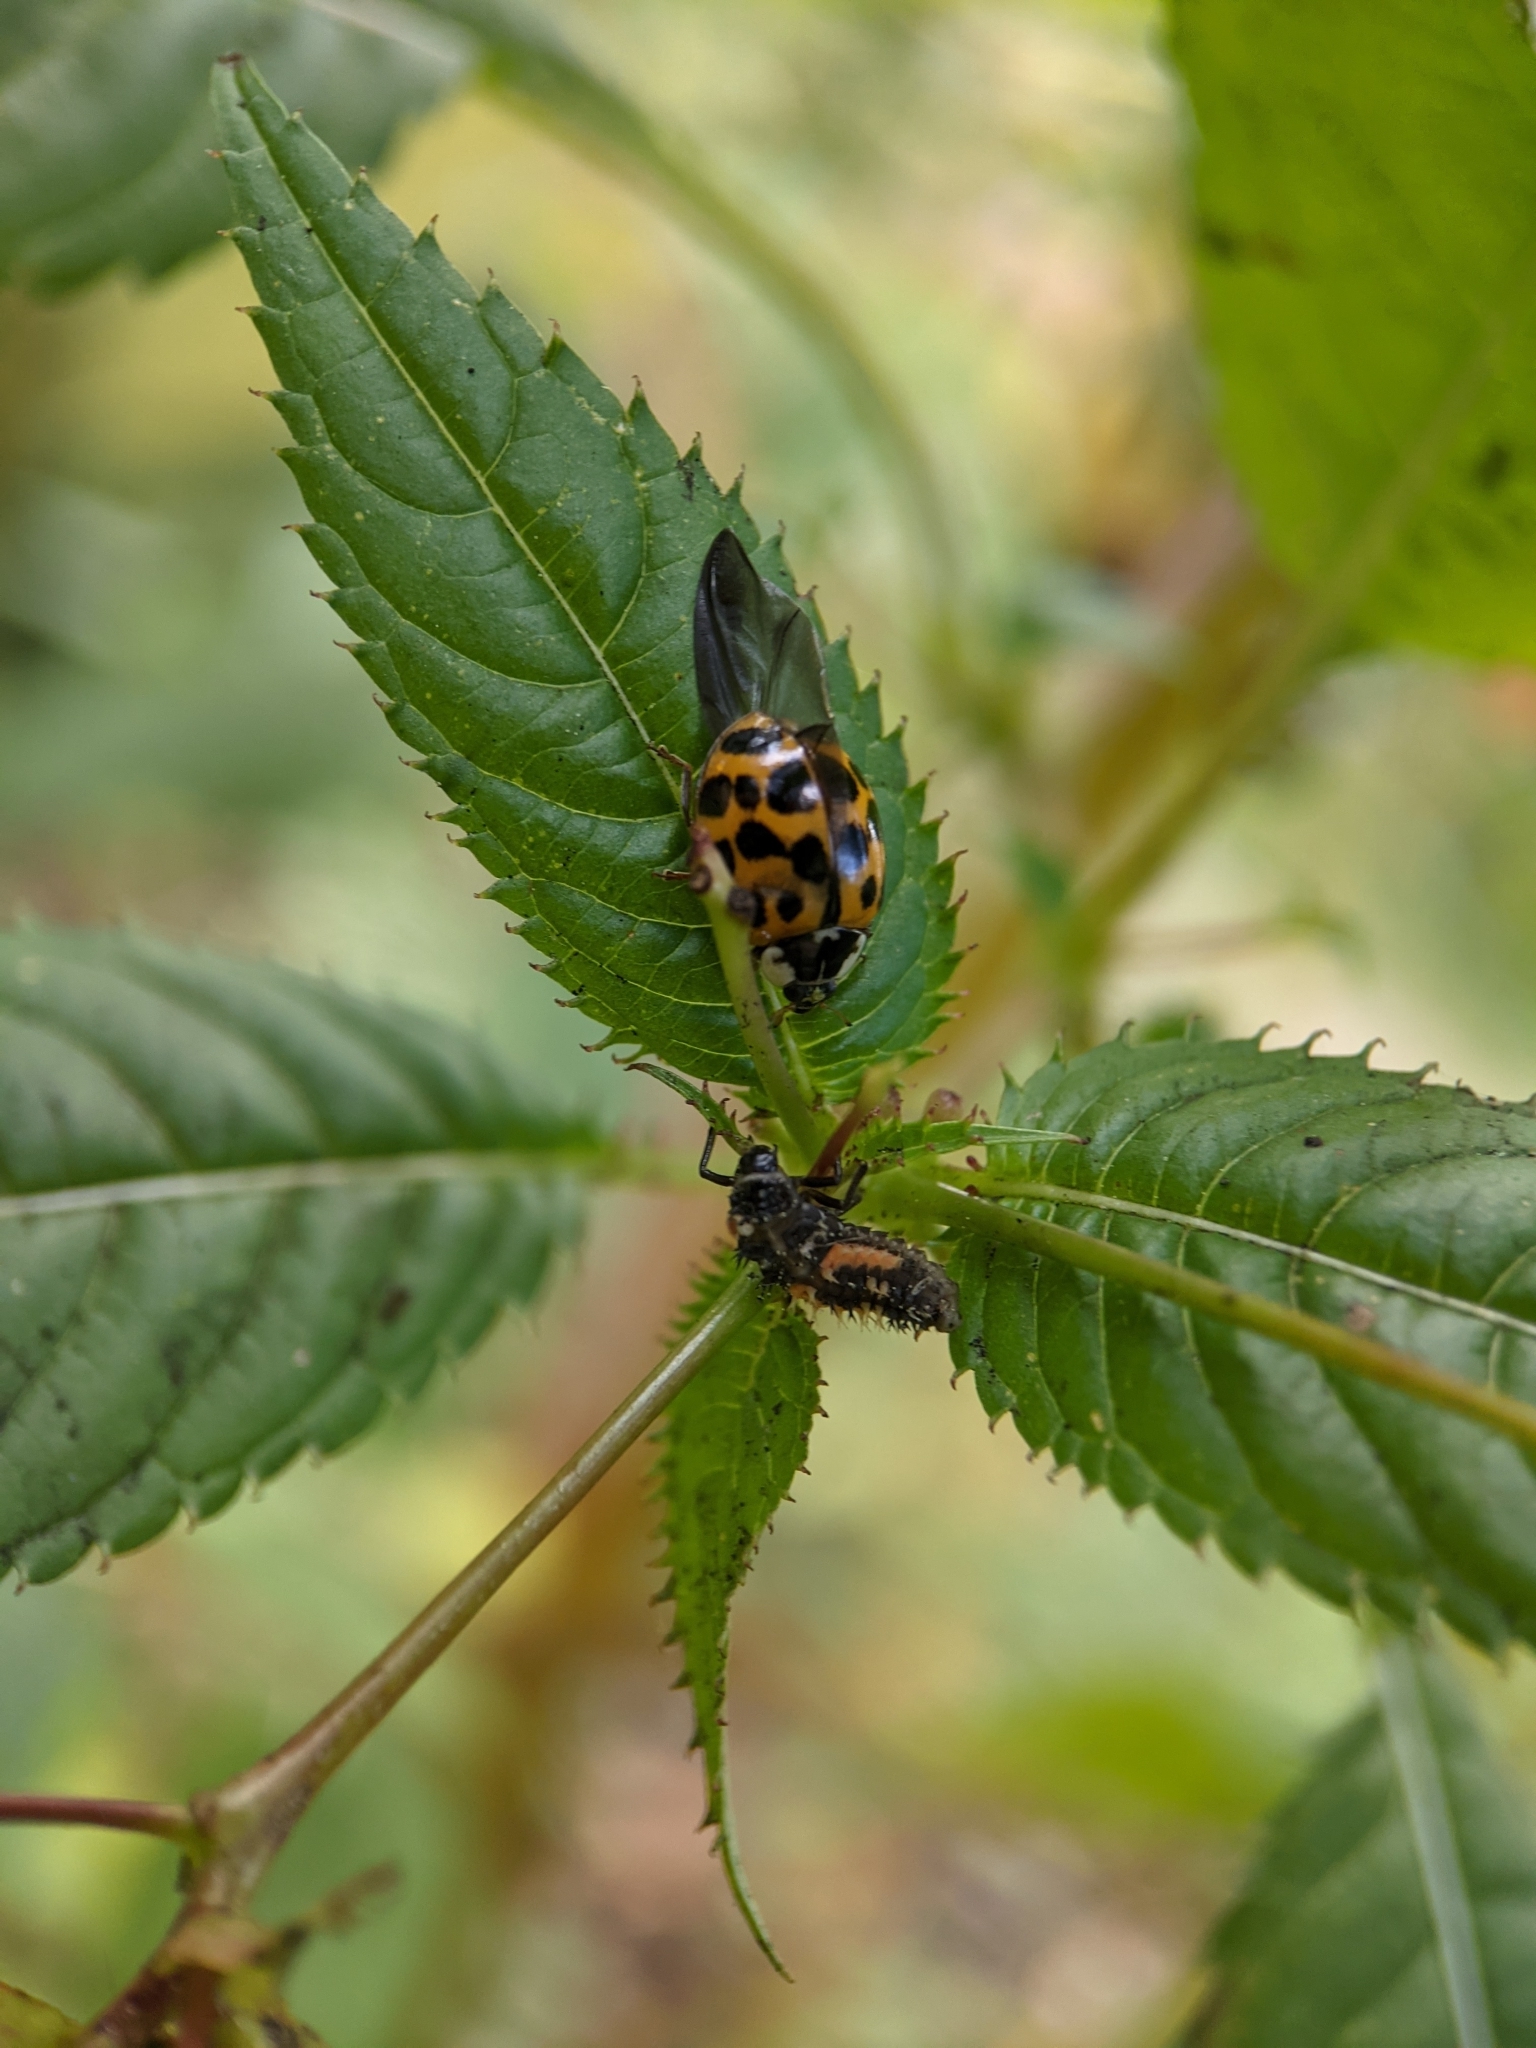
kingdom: Animalia
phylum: Arthropoda
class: Insecta
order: Coleoptera
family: Coccinellidae
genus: Harmonia
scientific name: Harmonia axyridis
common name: Harlequin ladybird
